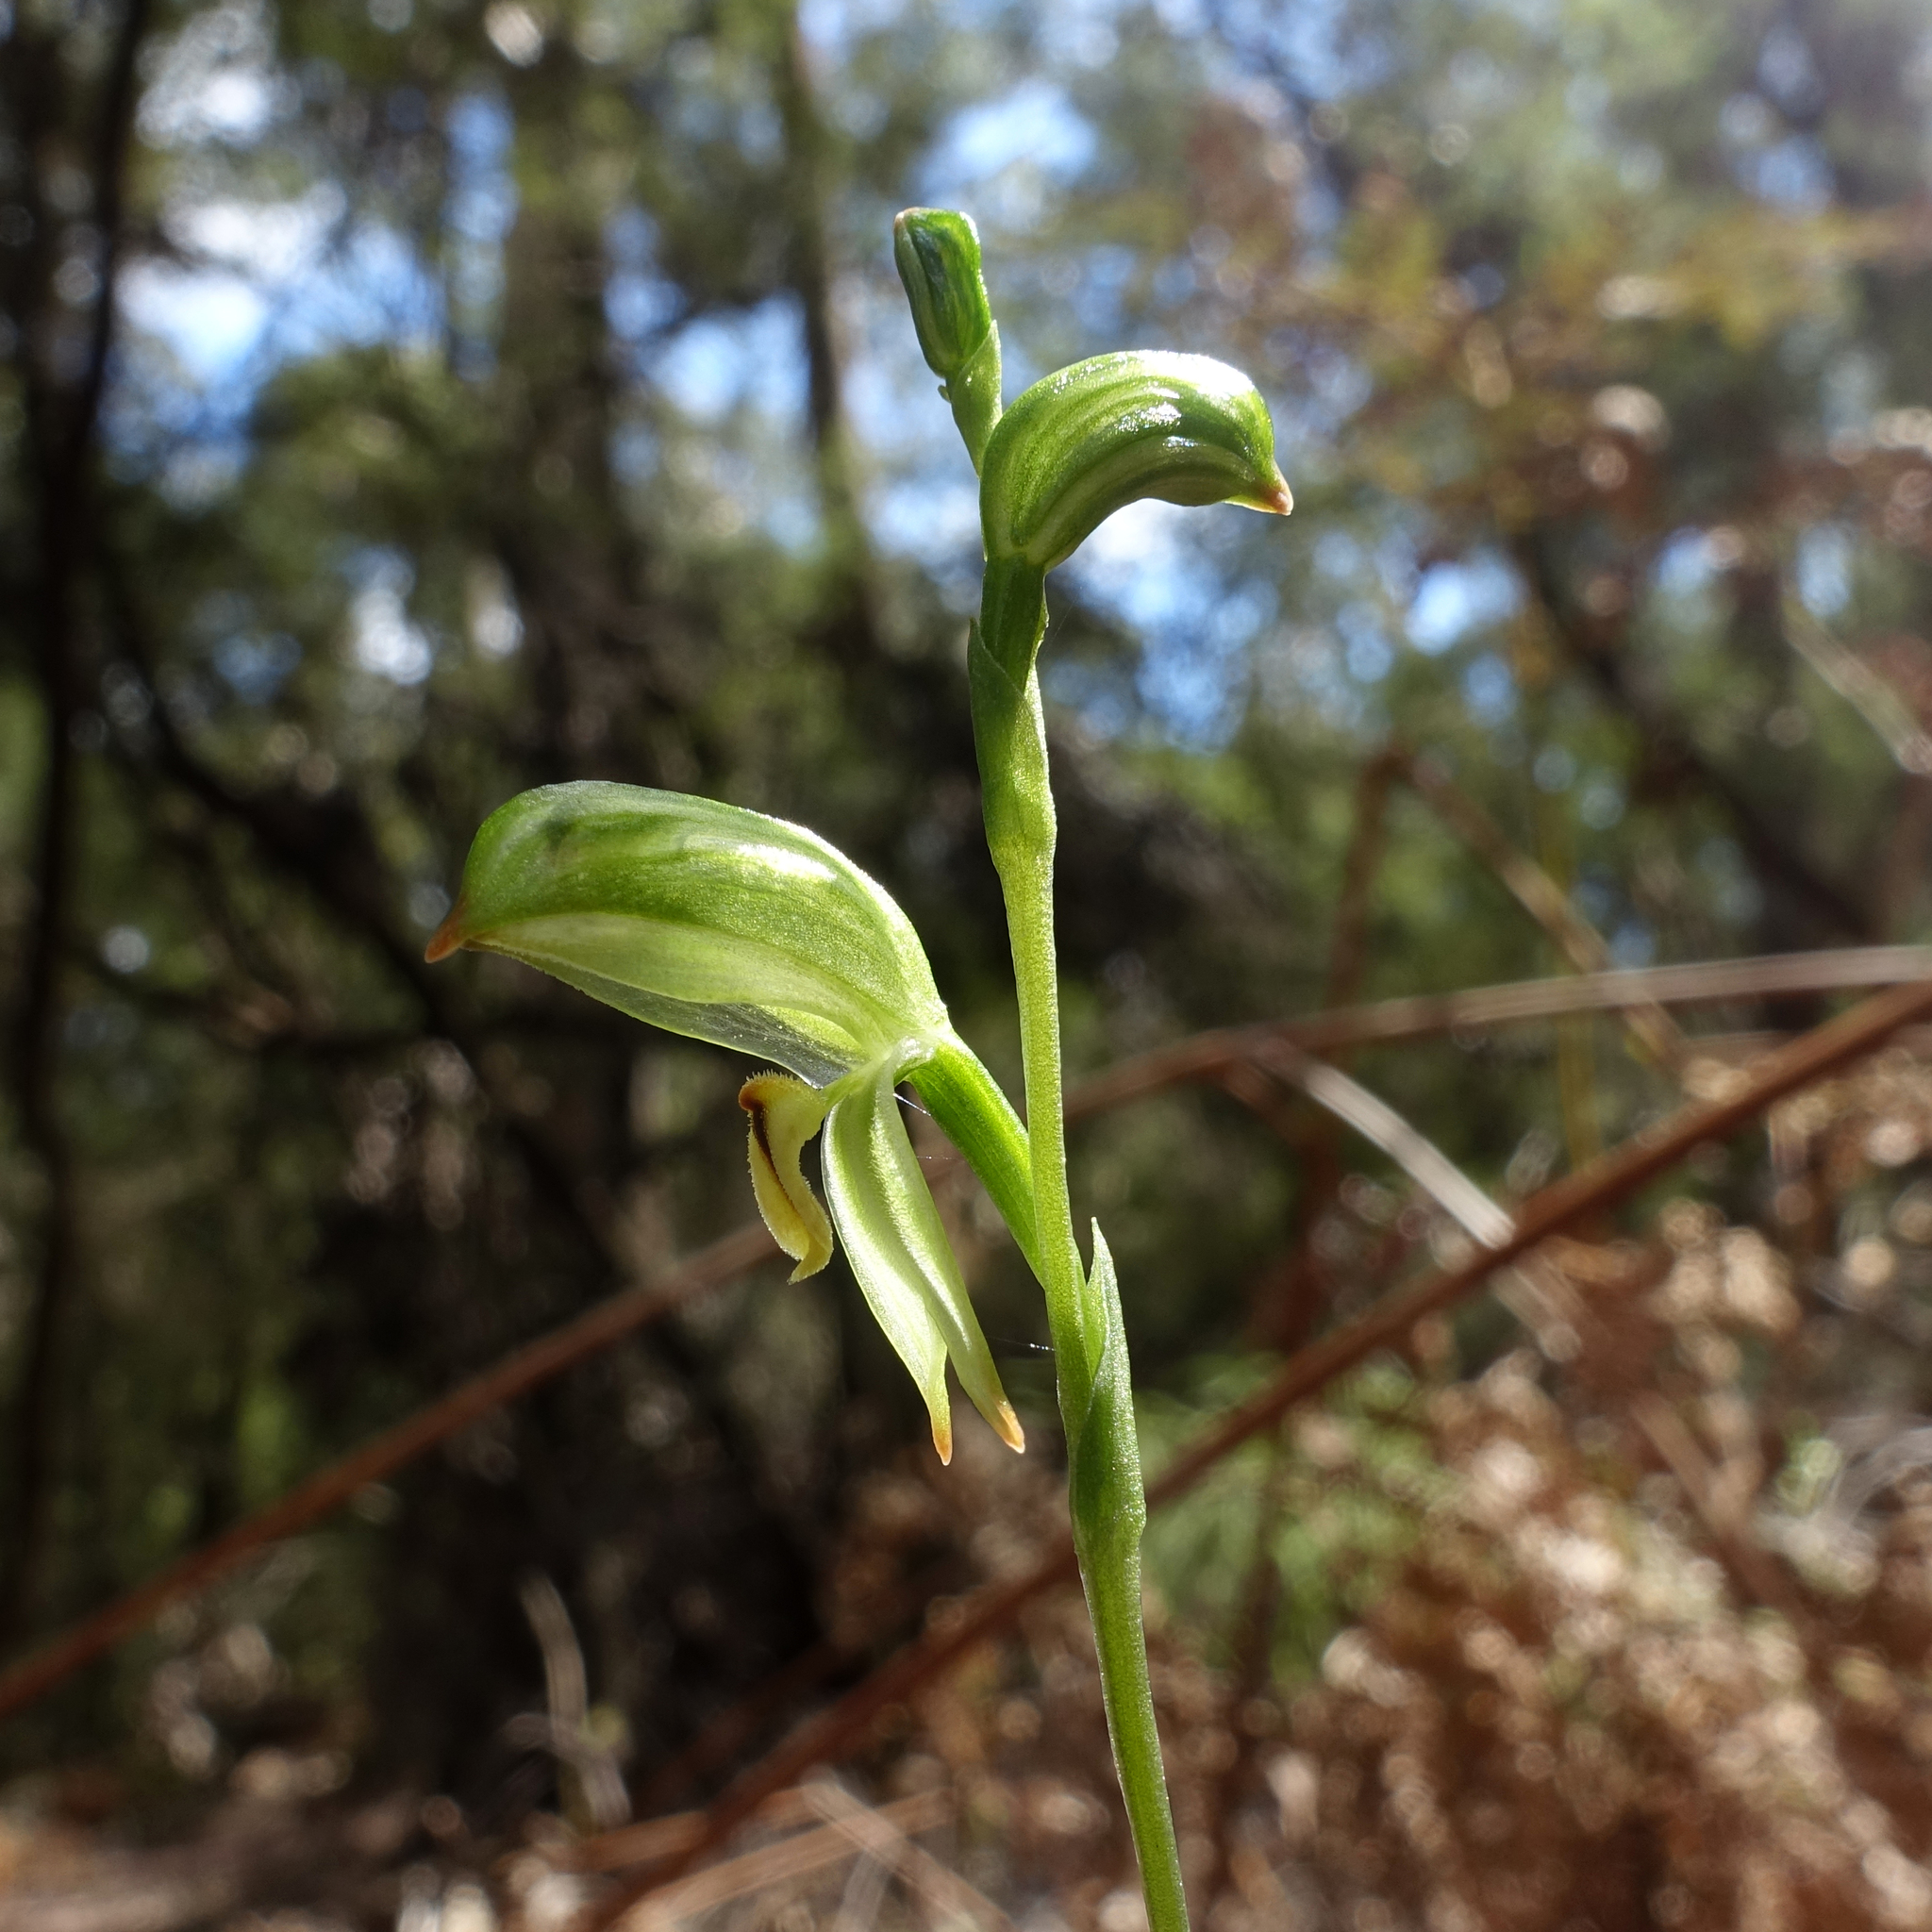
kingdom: Plantae
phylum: Tracheophyta
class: Liliopsida
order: Asparagales
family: Orchidaceae
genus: Pterostylis
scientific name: Pterostylis melagramma
